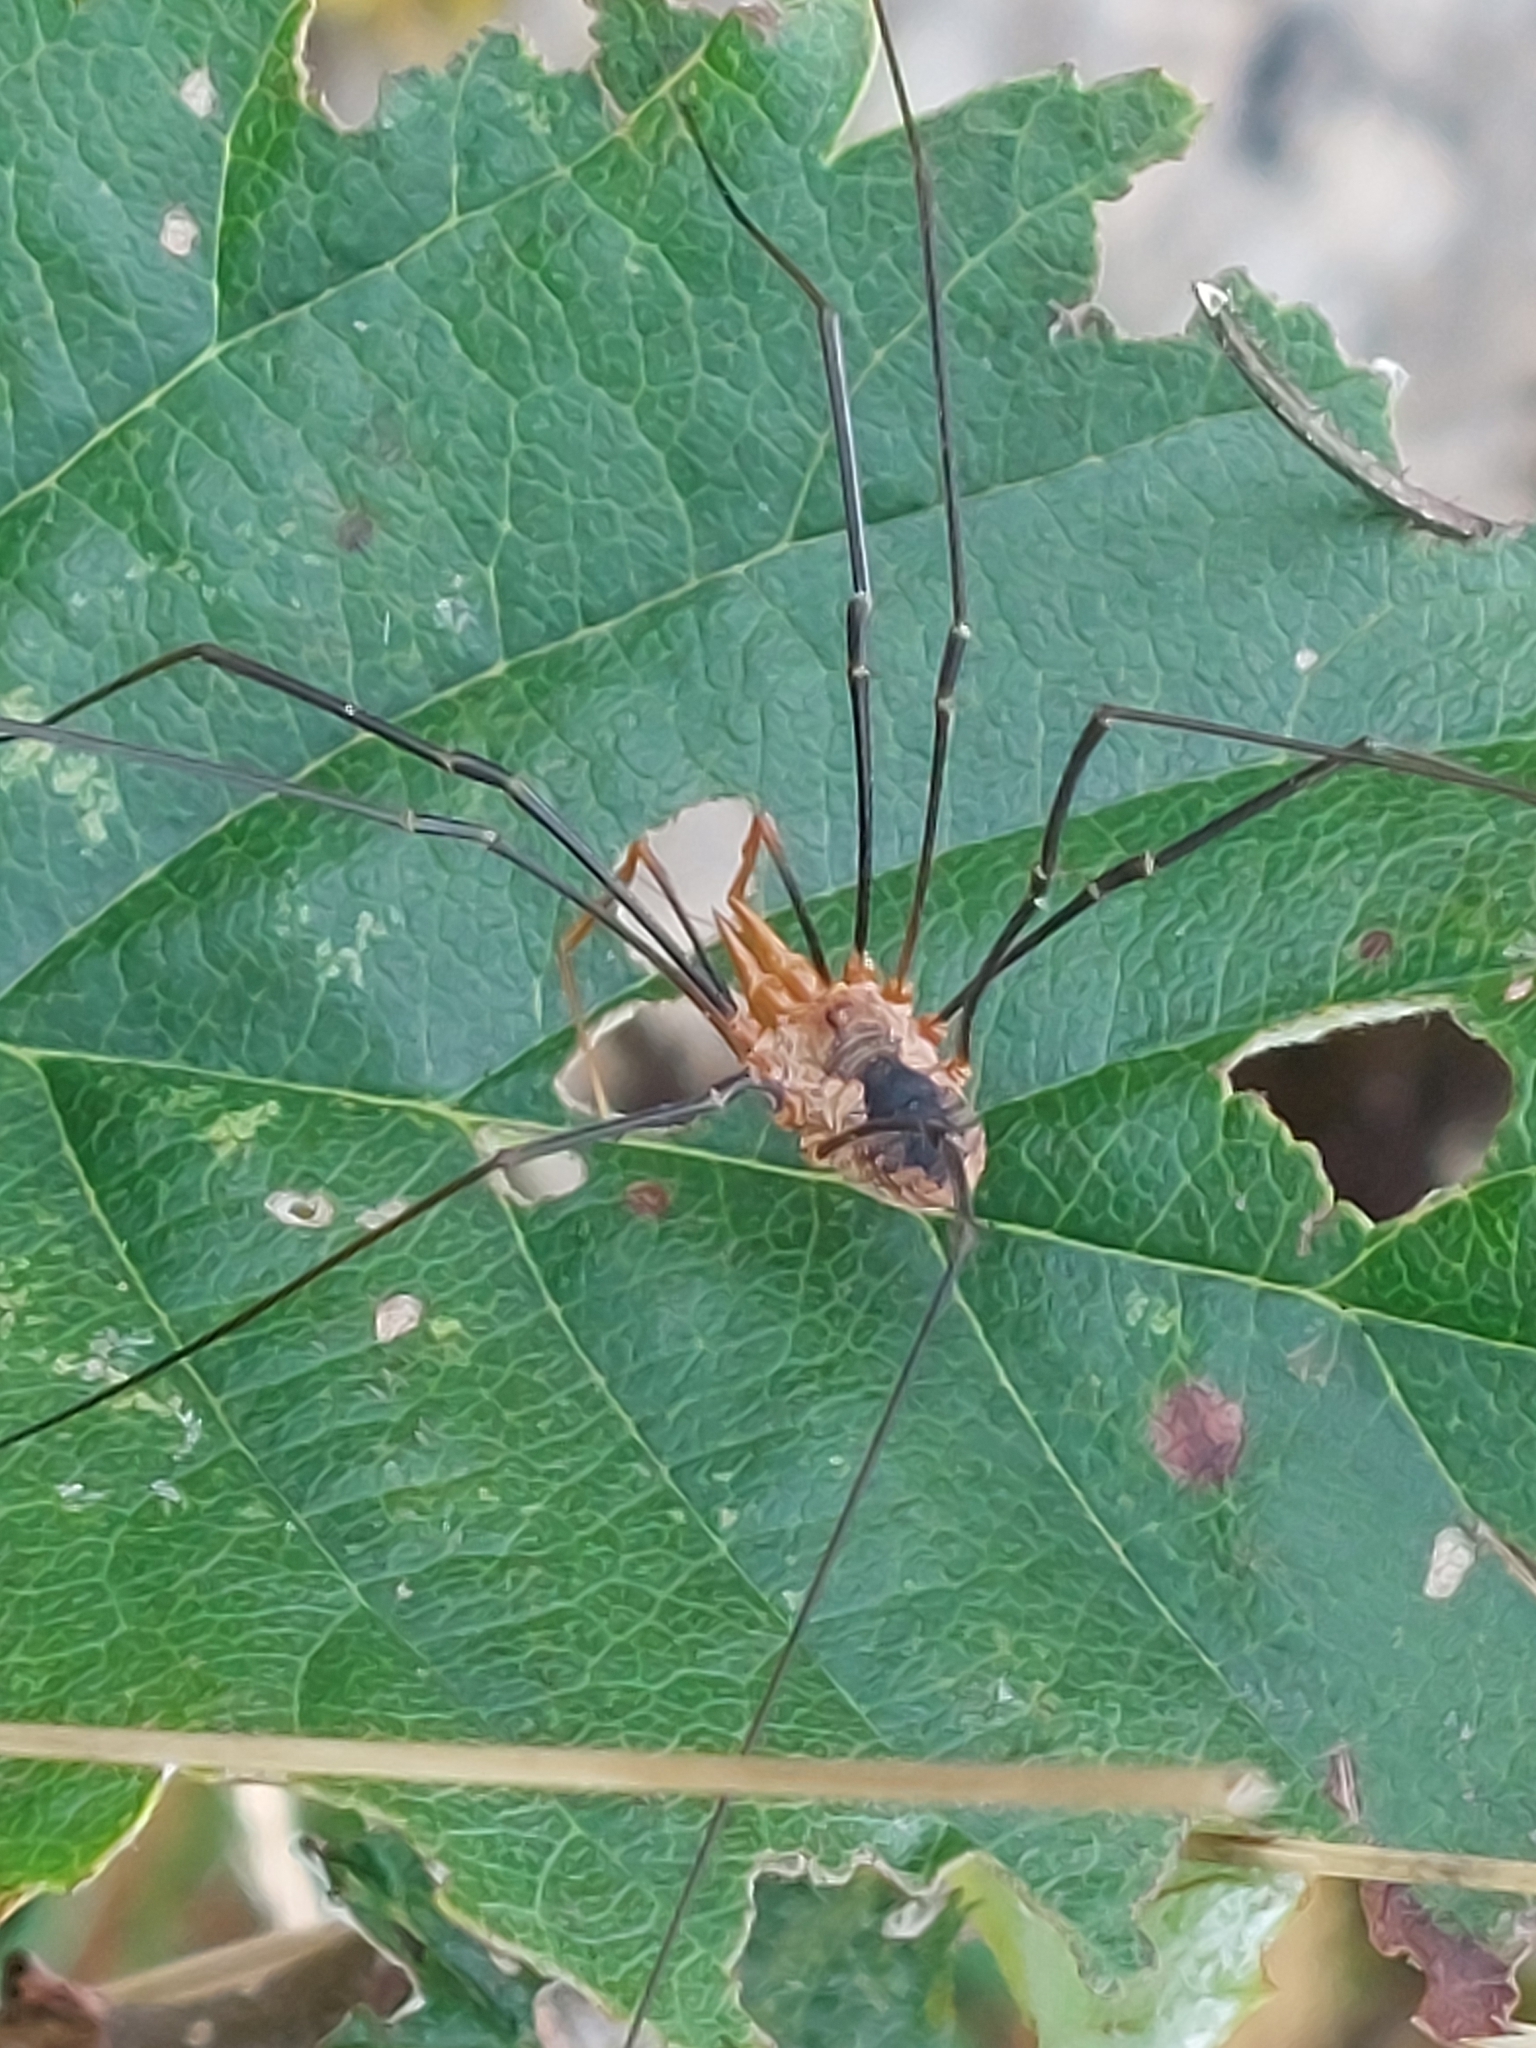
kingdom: Animalia
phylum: Arthropoda
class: Arachnida
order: Opiliones
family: Phalangiidae
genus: Phalangium
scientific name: Phalangium opilio
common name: Daddy longleg
